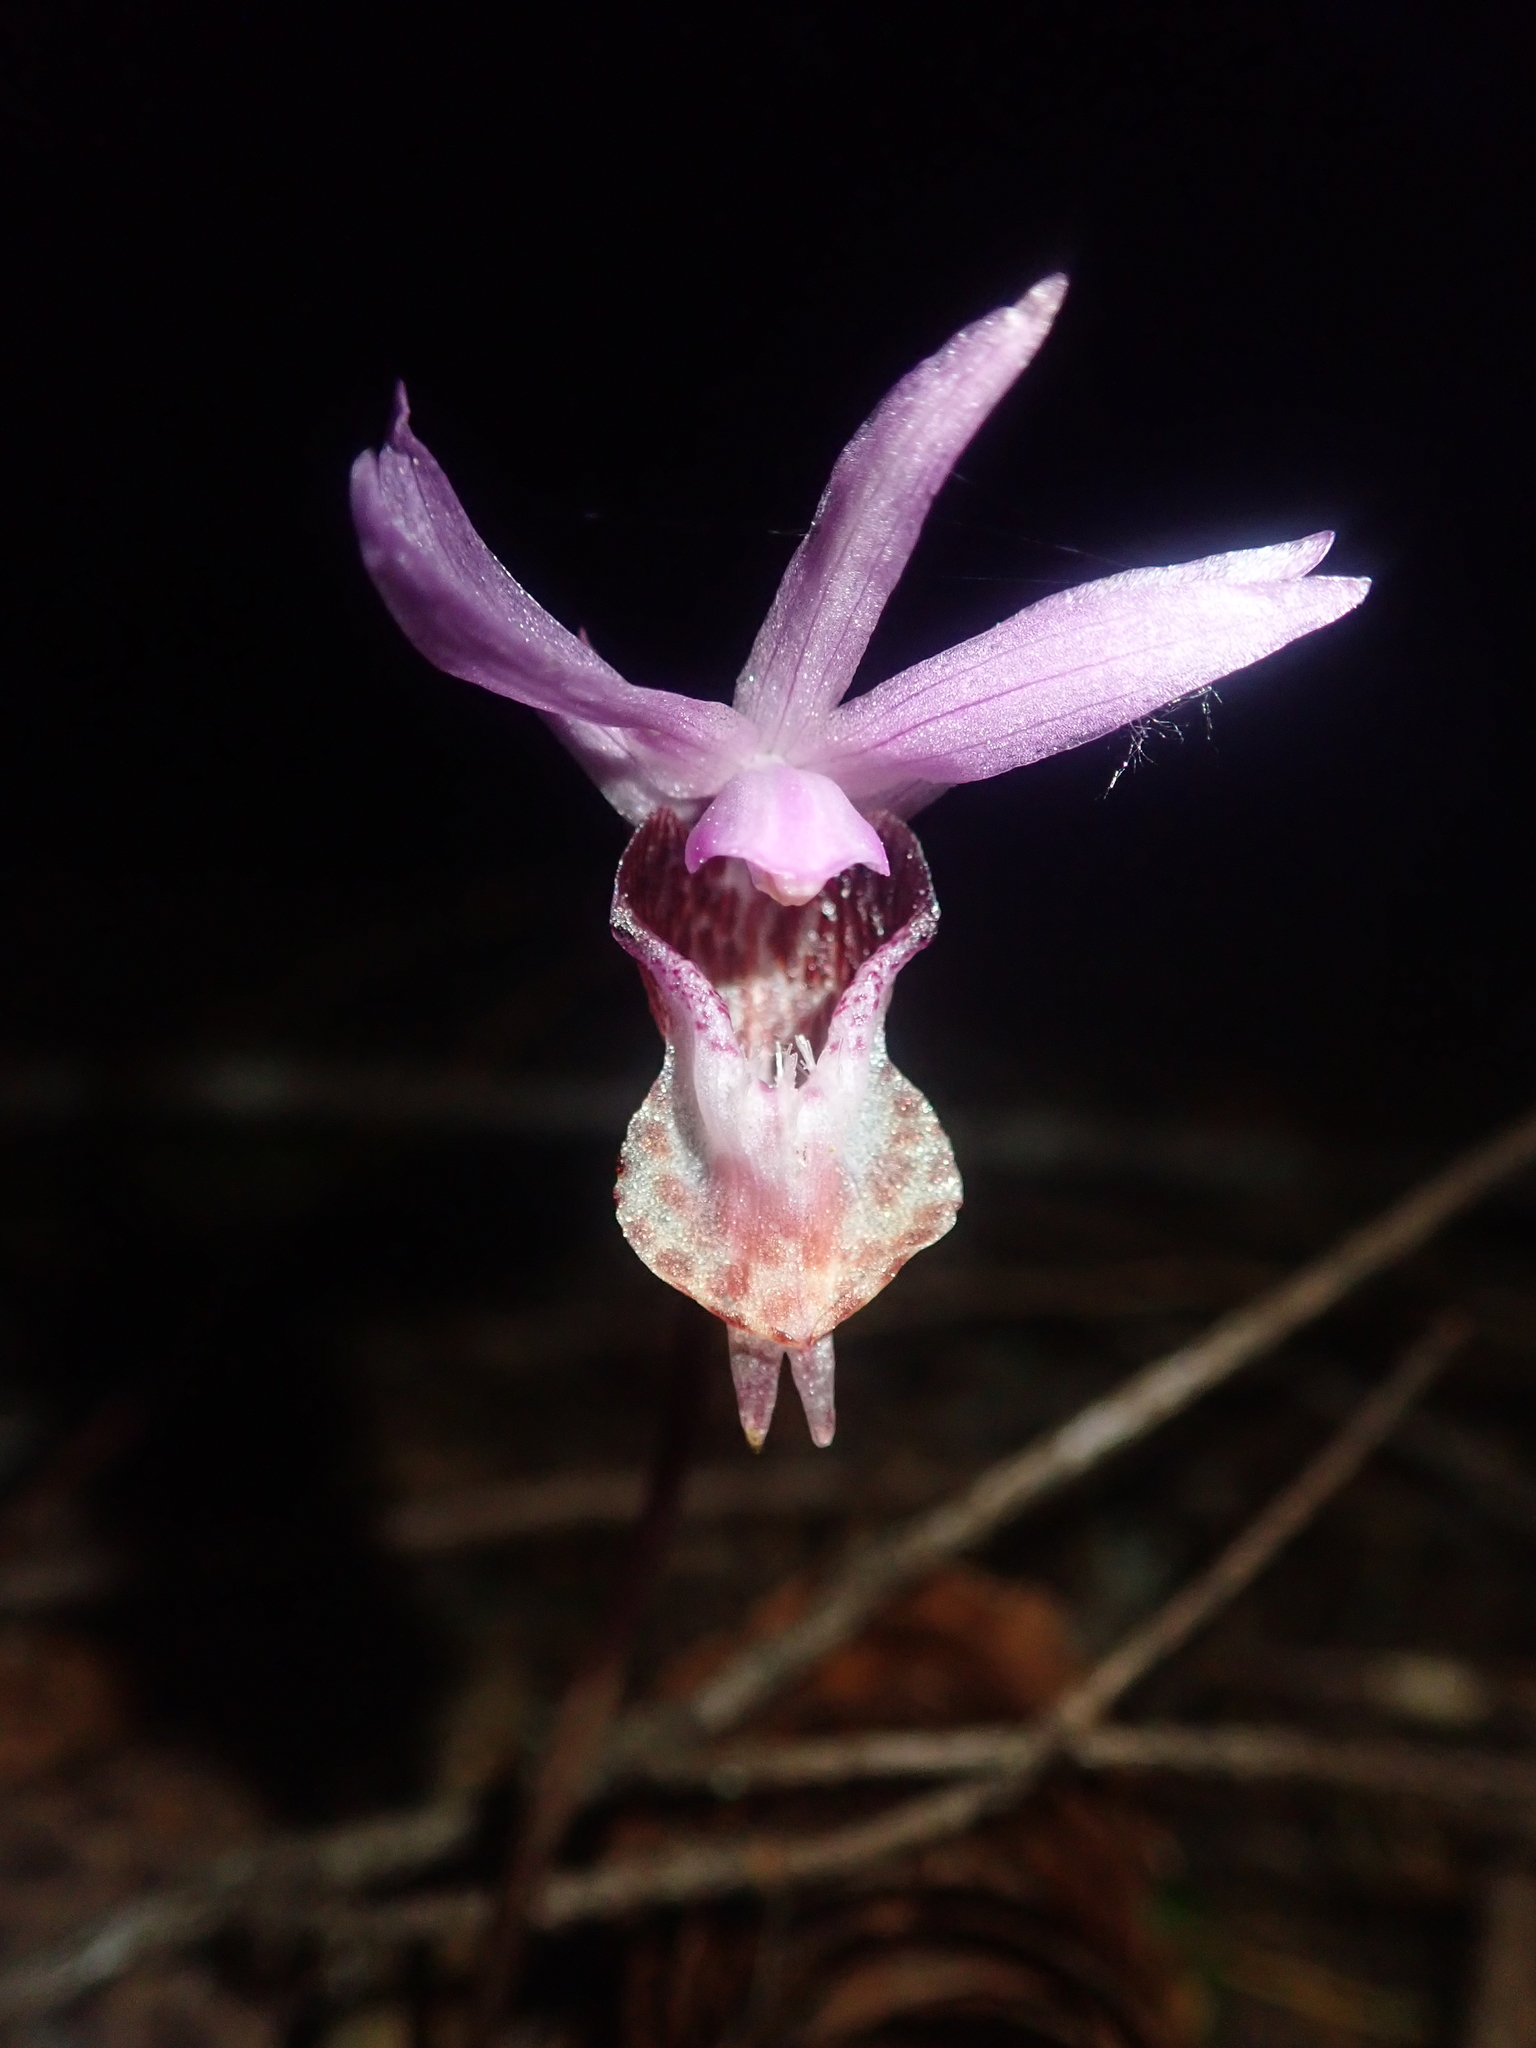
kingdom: Plantae
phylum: Tracheophyta
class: Liliopsida
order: Asparagales
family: Orchidaceae
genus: Calypso
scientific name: Calypso bulbosa
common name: Calypso
